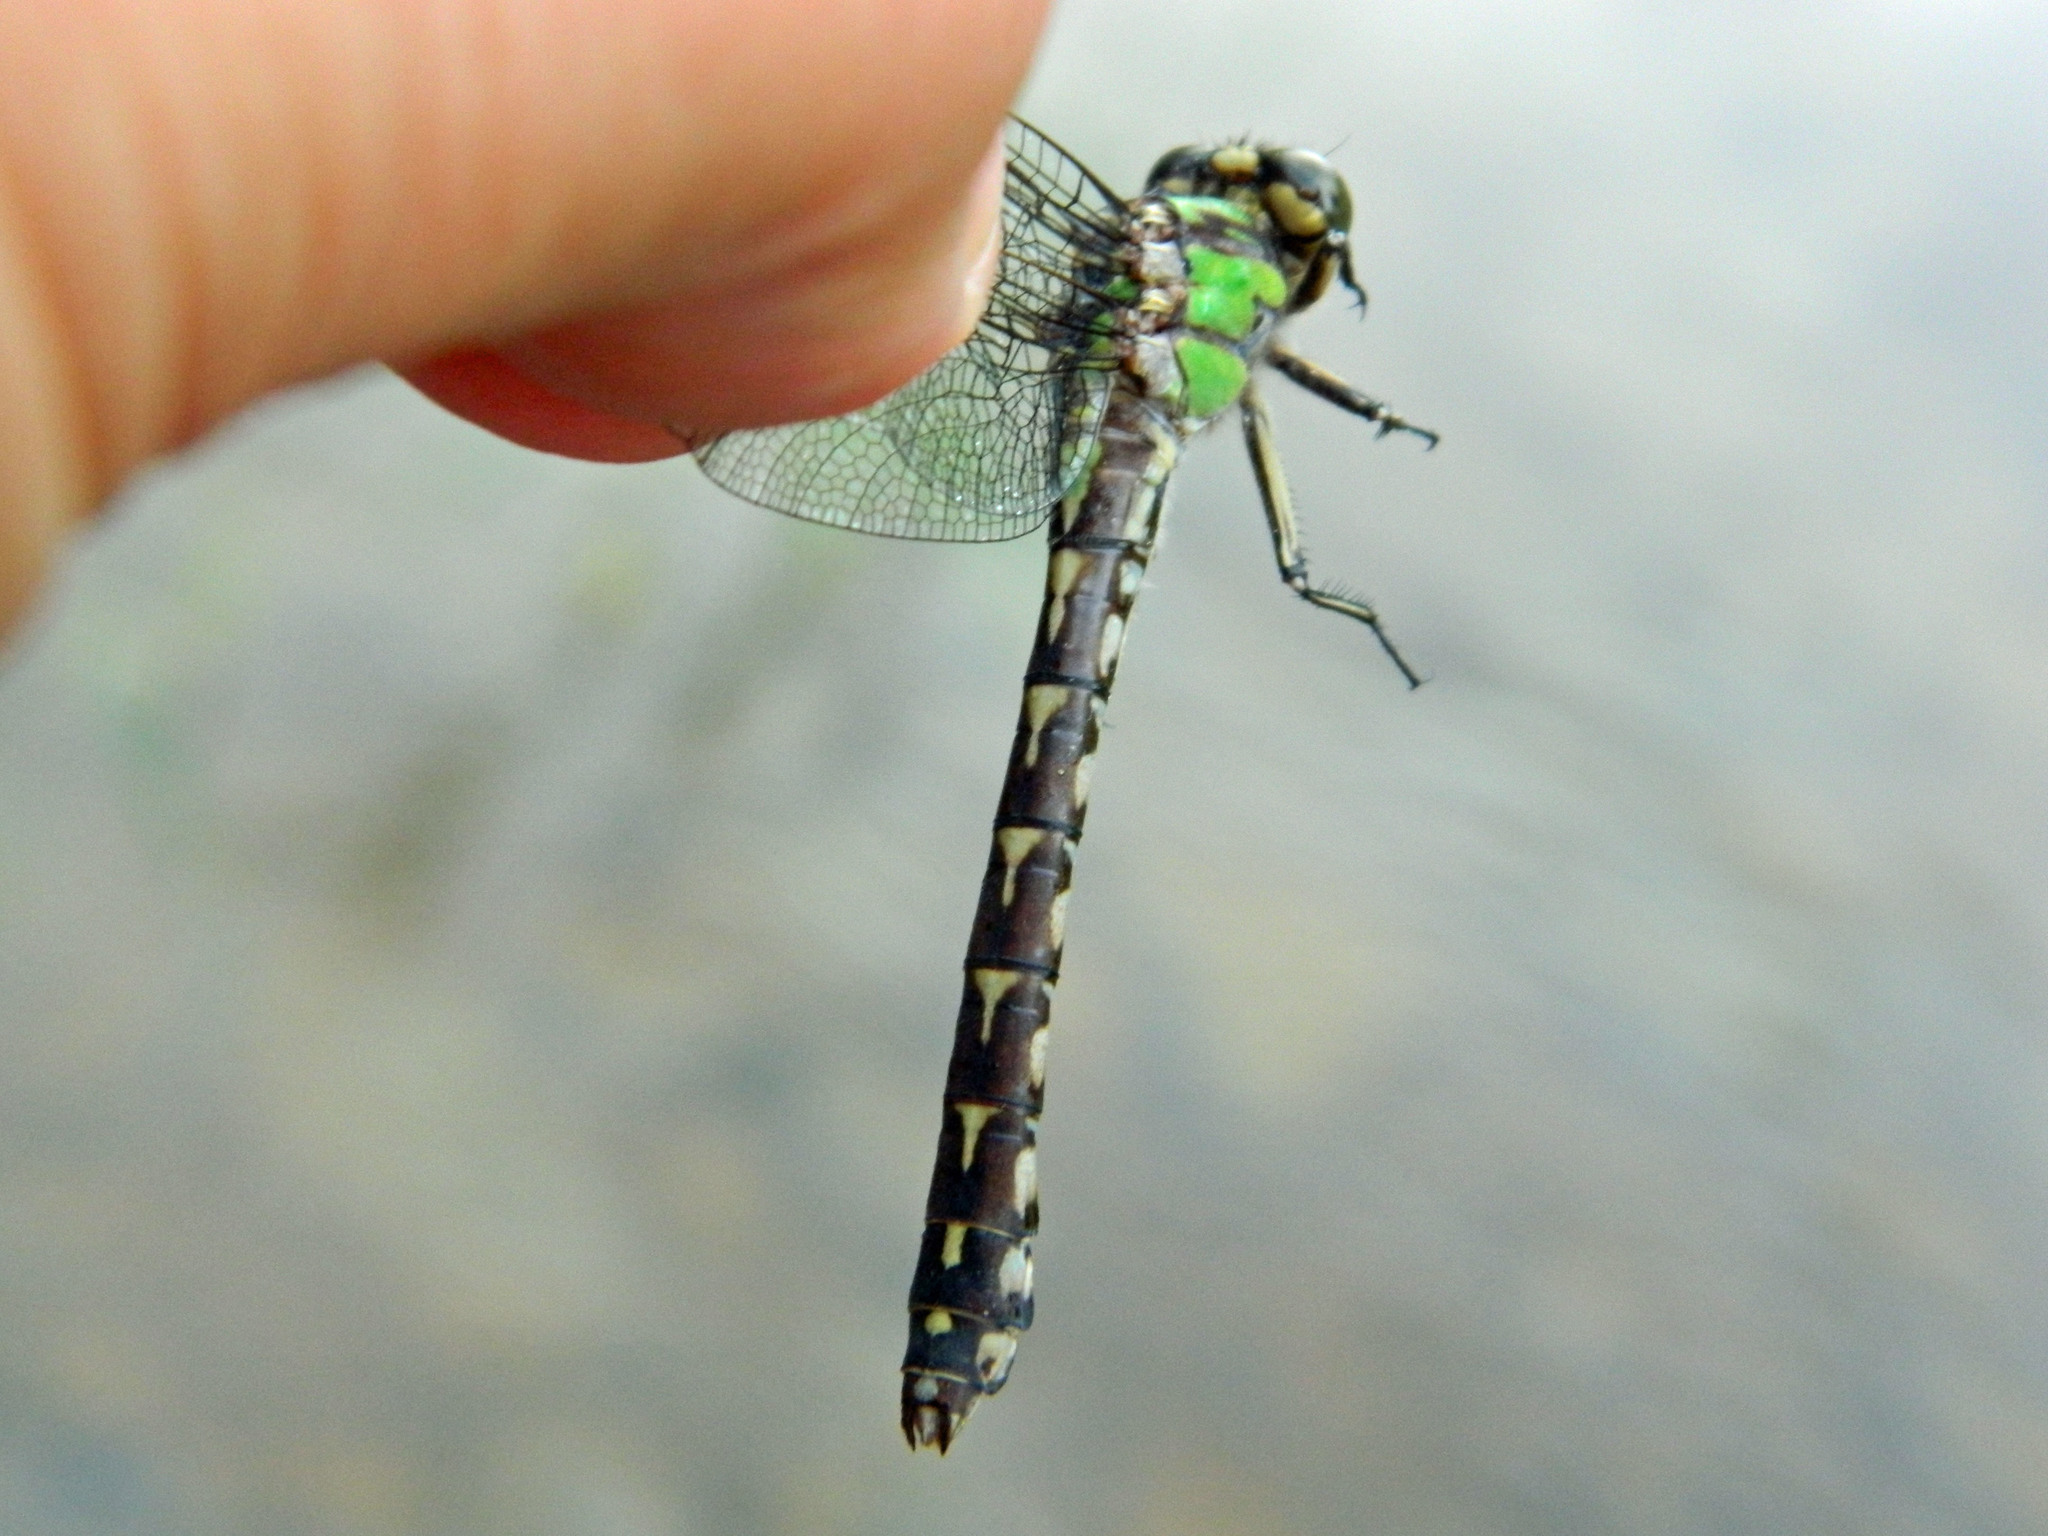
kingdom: Animalia
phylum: Arthropoda
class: Insecta
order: Odonata
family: Gomphidae
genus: Ophiogomphus
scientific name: Ophiogomphus colubrinus
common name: Boreal snaketail
